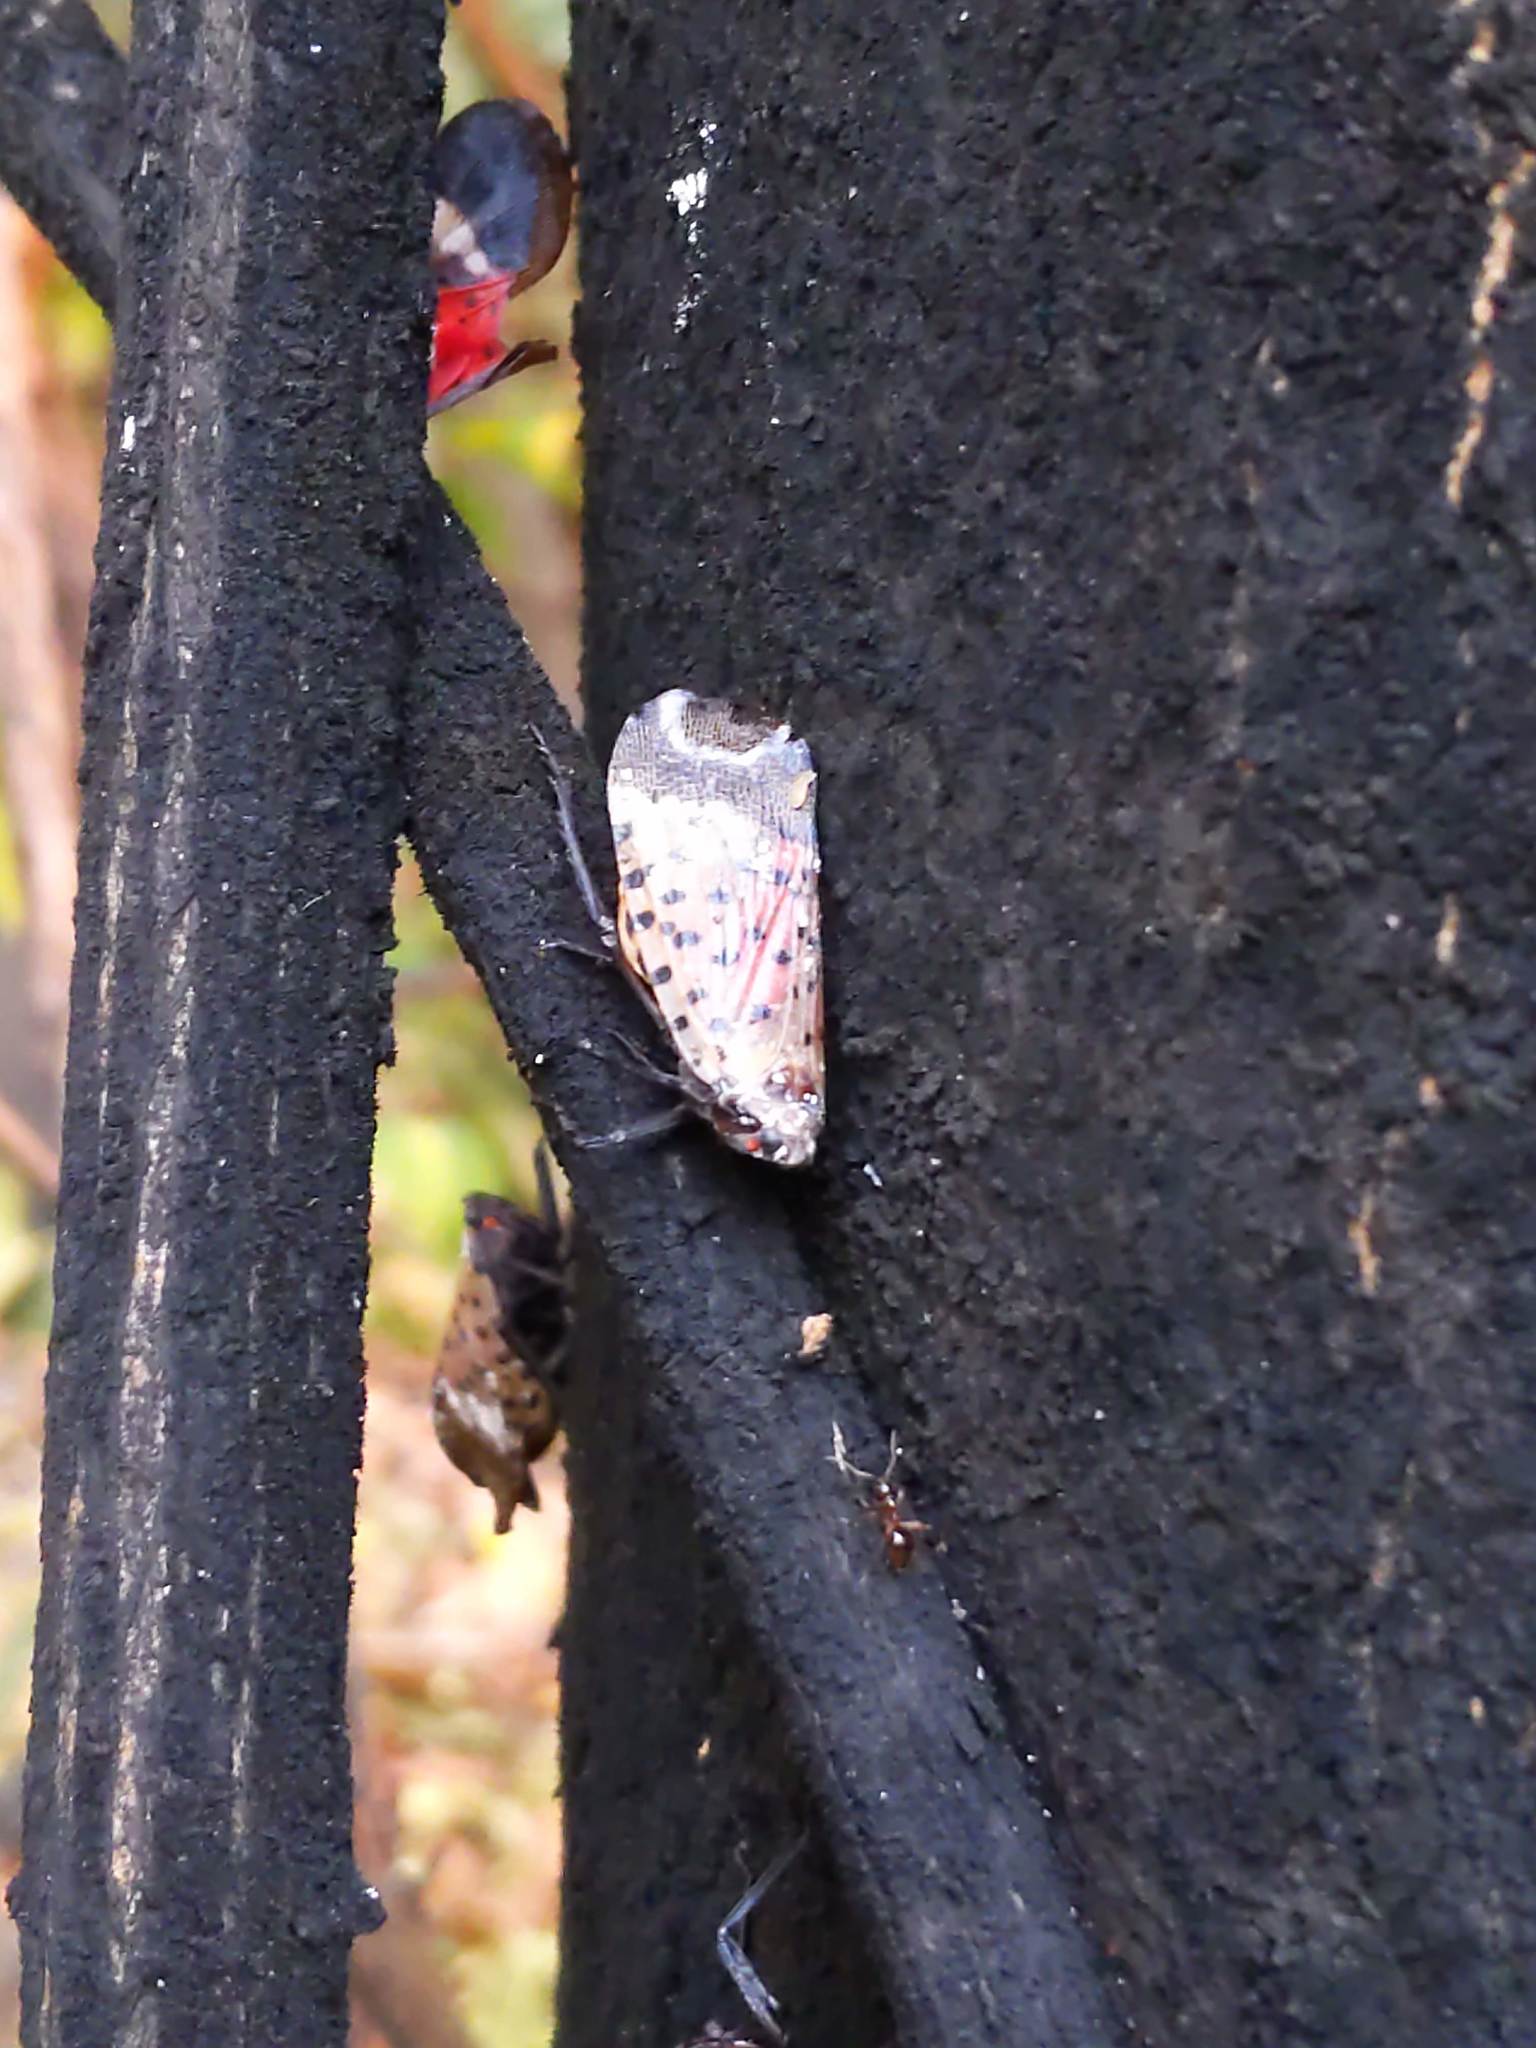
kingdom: Animalia
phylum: Arthropoda
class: Insecta
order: Hemiptera
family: Fulgoridae
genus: Lycorma
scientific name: Lycorma delicatula
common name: Spotted lanternfly
